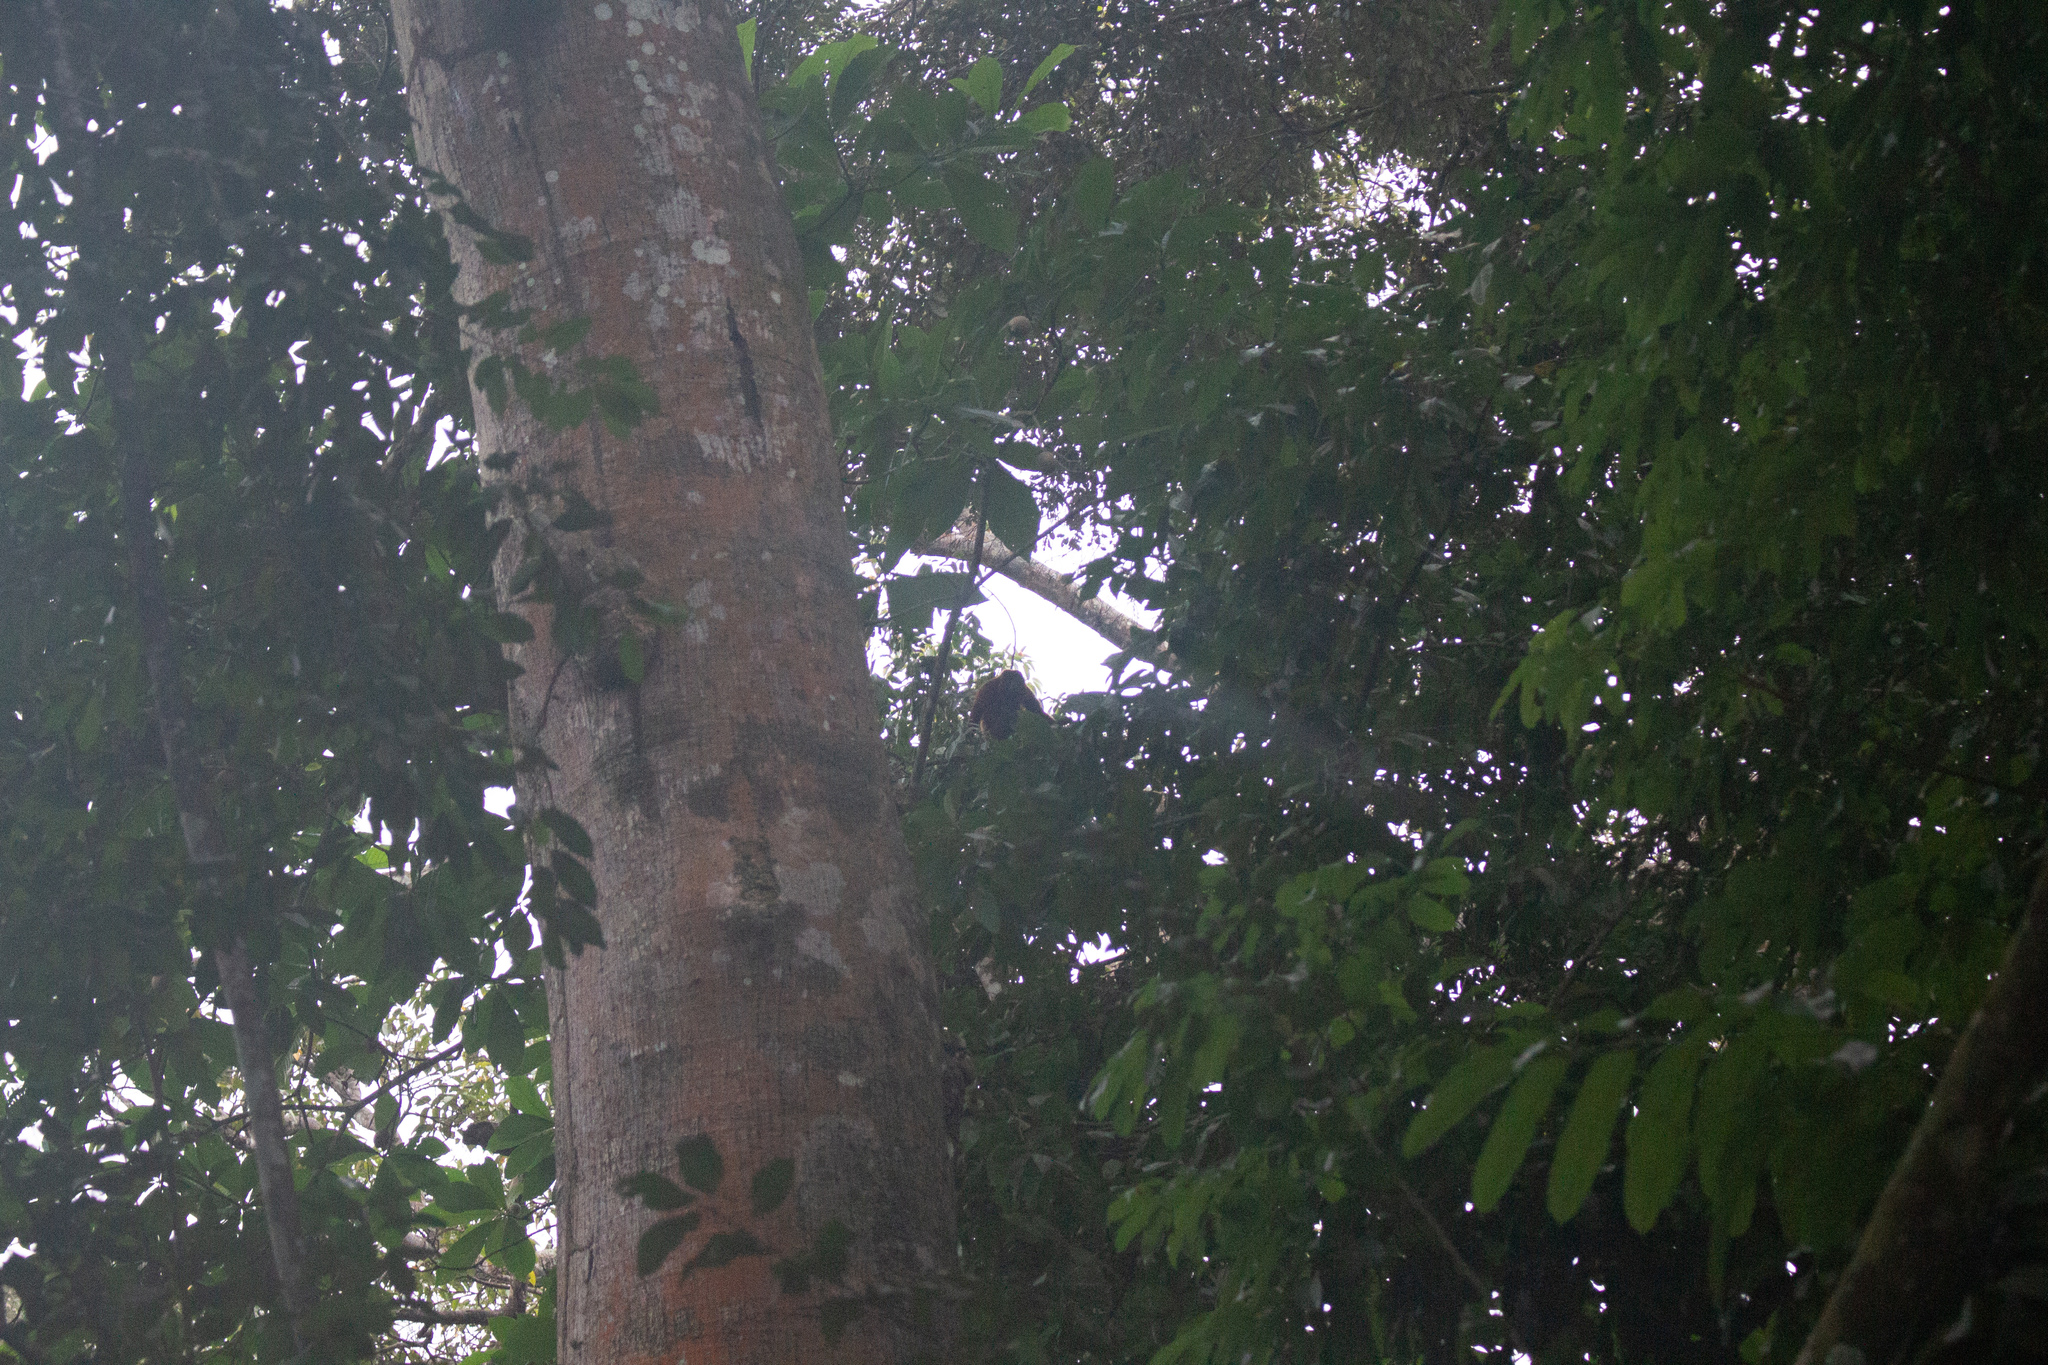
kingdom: Animalia
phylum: Chordata
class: Mammalia
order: Primates
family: Atelidae
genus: Alouatta
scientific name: Alouatta seniculus
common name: Venezuelan red howler
